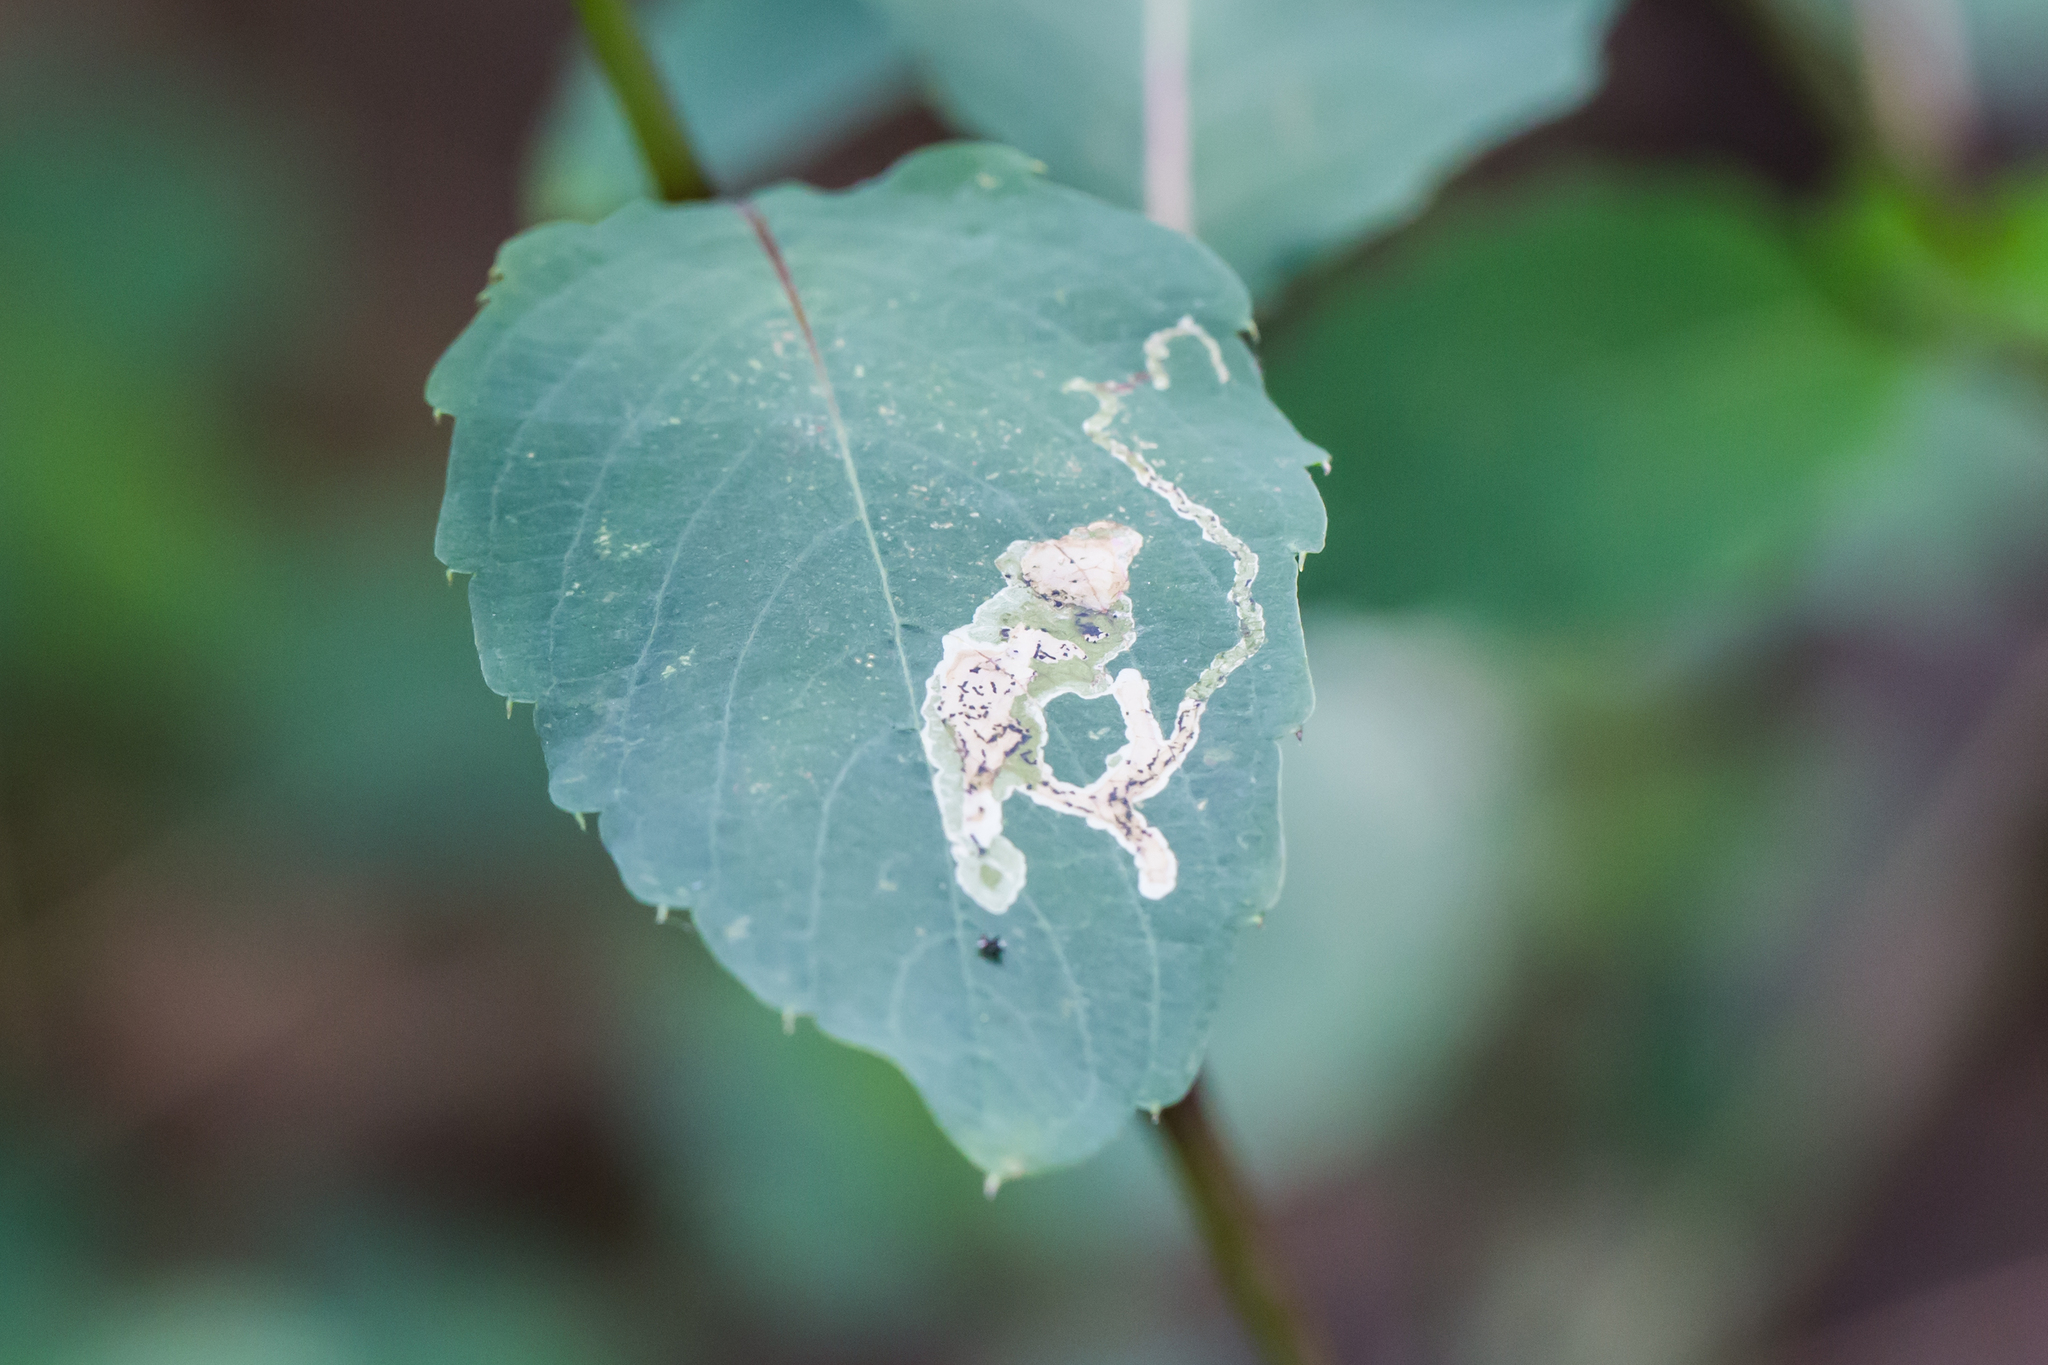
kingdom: Animalia
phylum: Arthropoda
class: Insecta
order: Diptera
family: Agromyzidae
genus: Phytoliriomyza
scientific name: Phytoliriomyza melampyga
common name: Jewelweed leaf-miner fly
